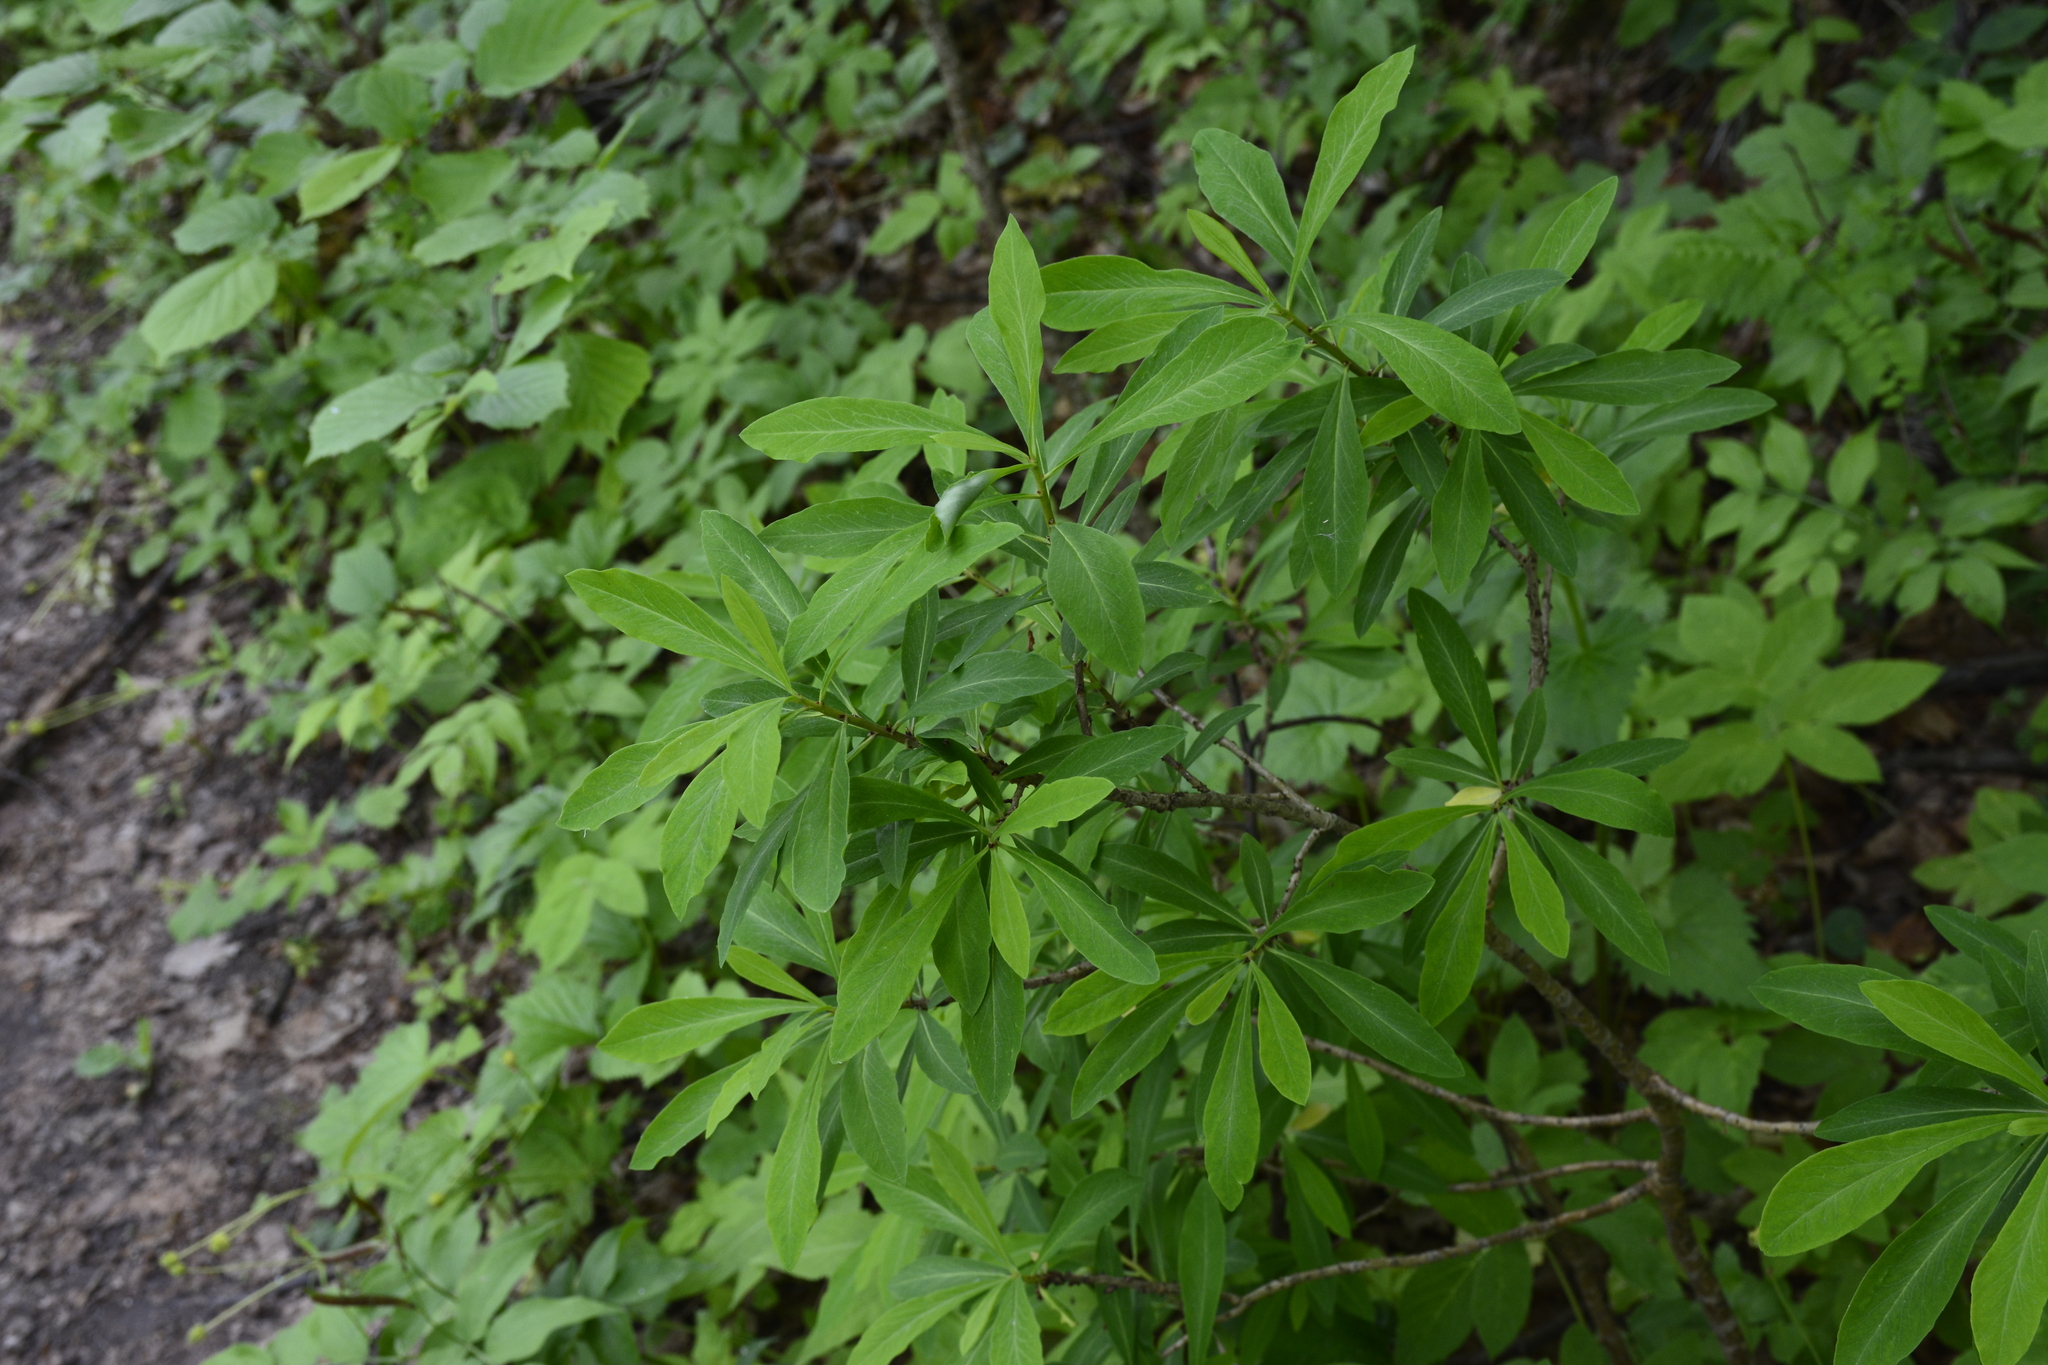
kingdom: Plantae
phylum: Tracheophyta
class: Magnoliopsida
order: Malvales
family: Thymelaeaceae
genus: Daphne
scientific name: Daphne mezereum
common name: Mezereon
